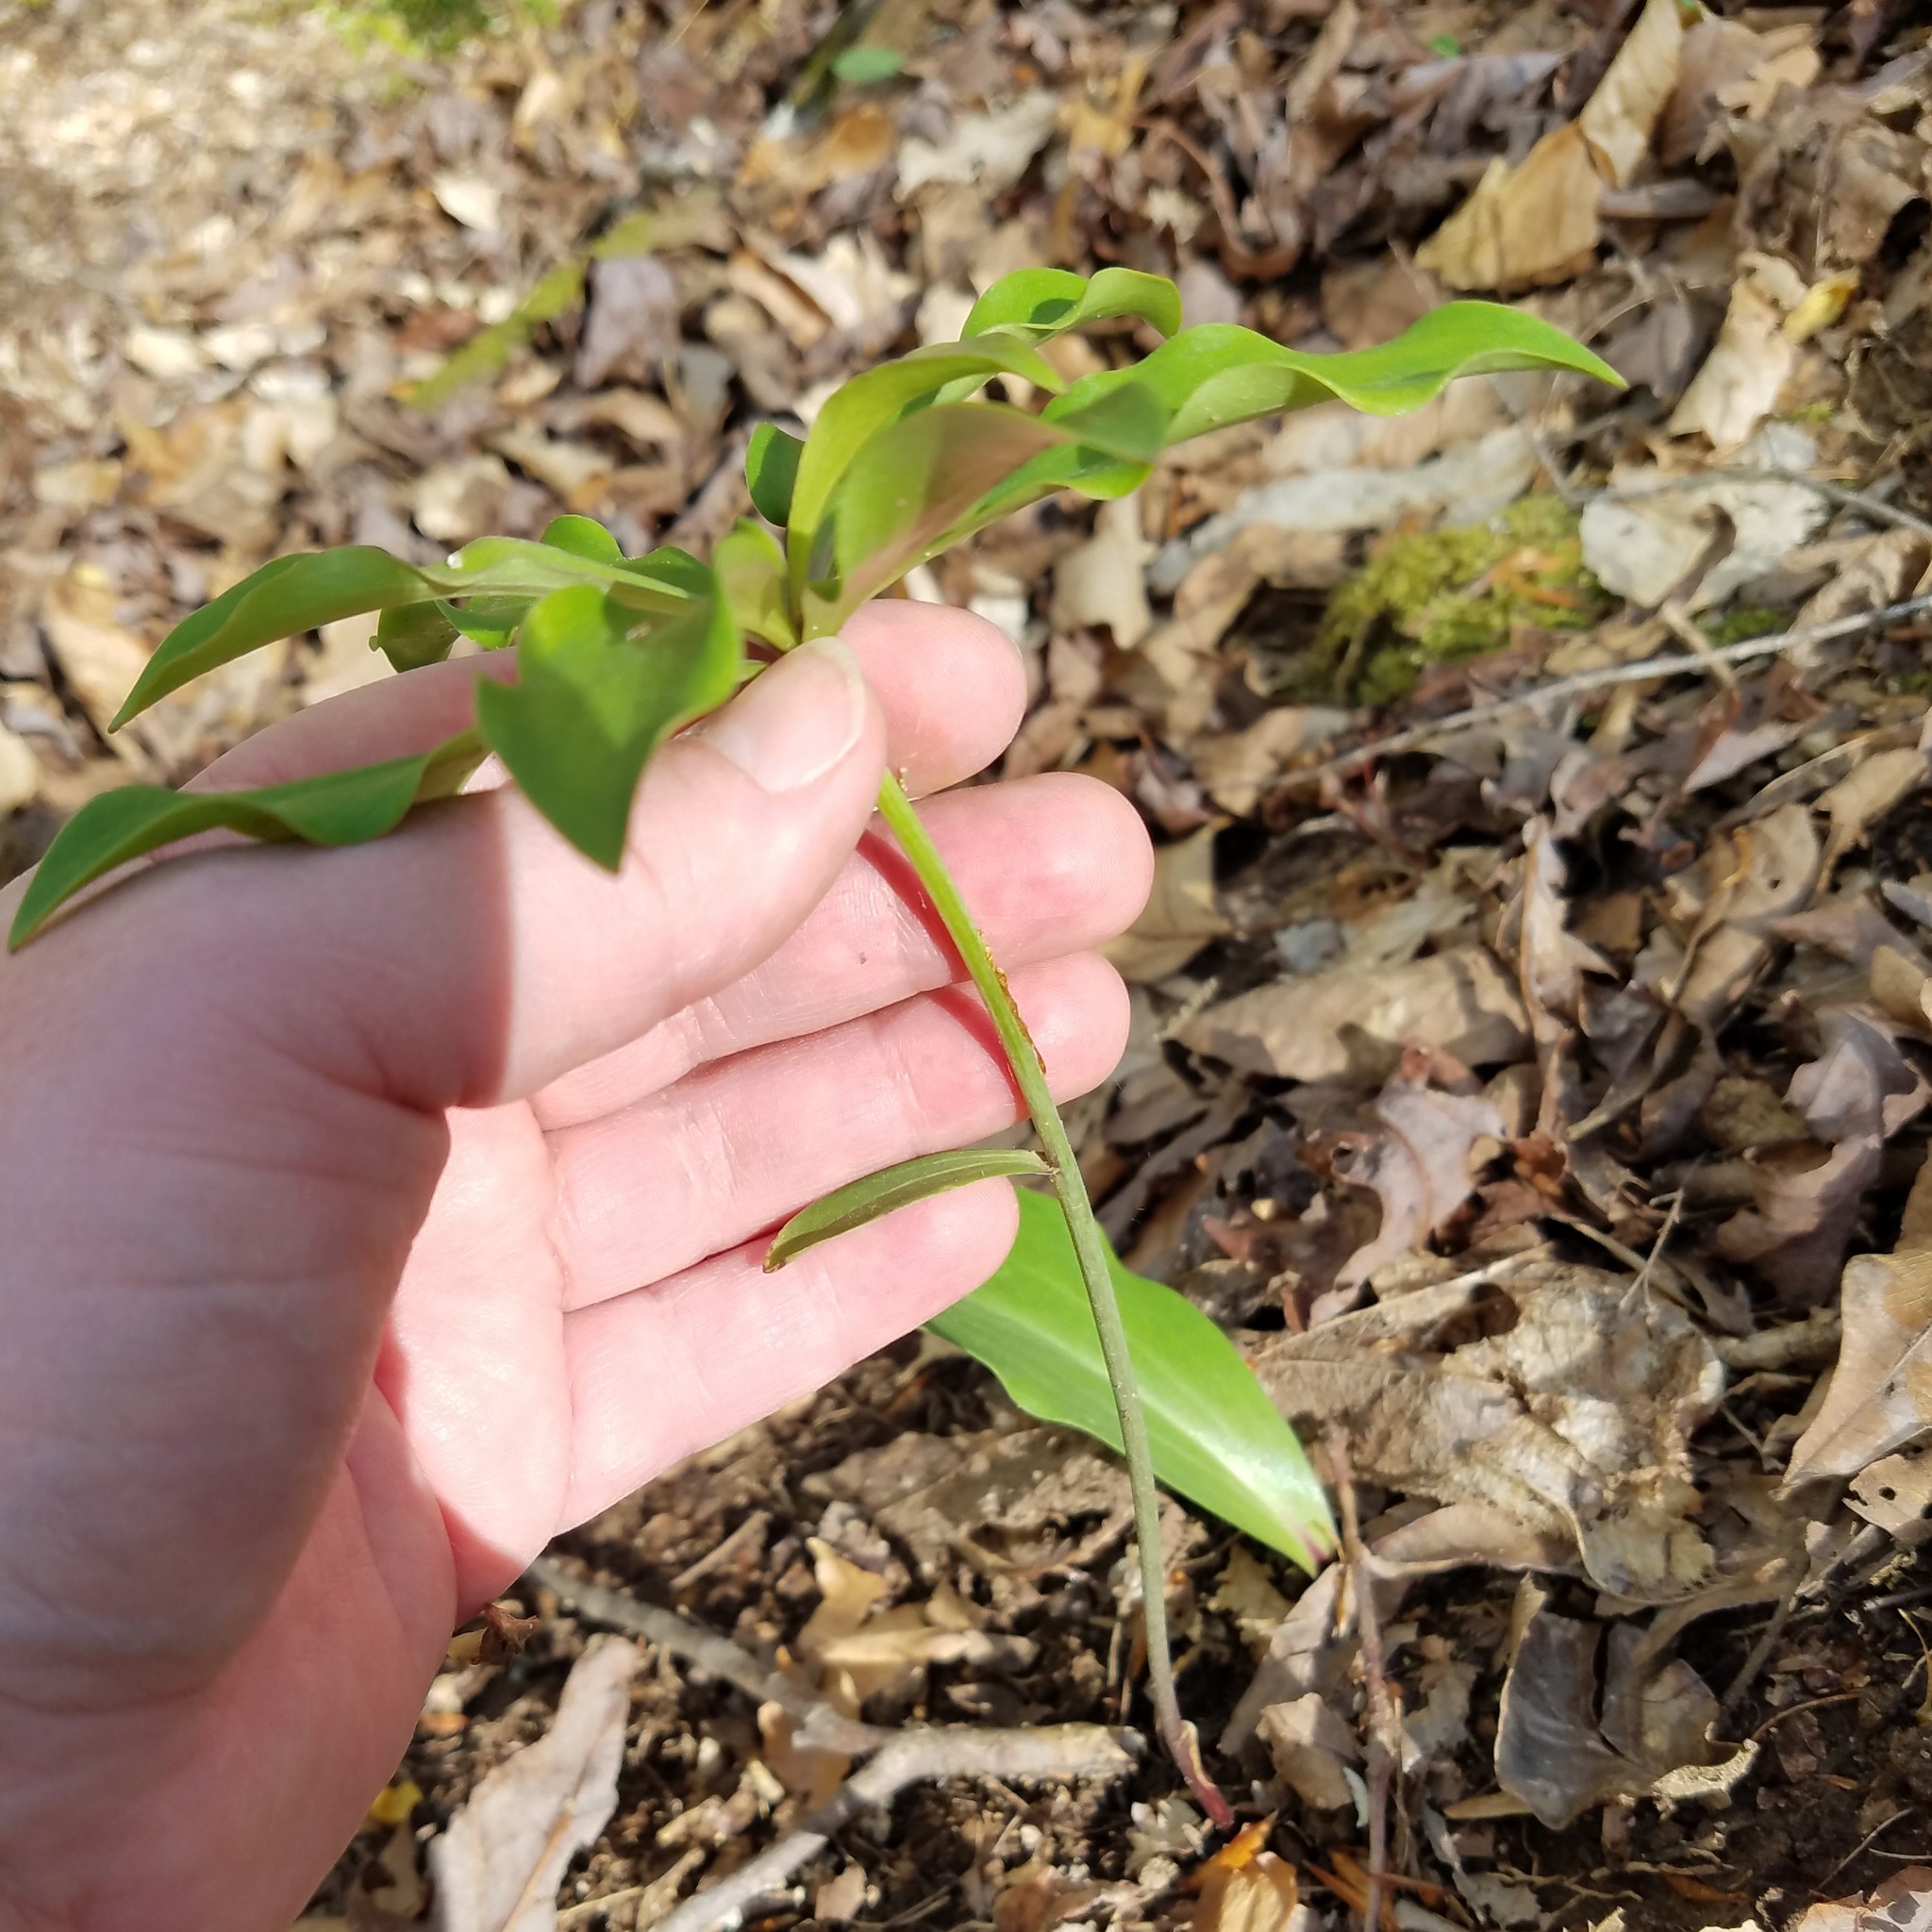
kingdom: Plantae
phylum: Tracheophyta
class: Liliopsida
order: Liliales
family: Liliaceae
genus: Lilium
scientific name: Lilium michauxii
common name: Carolina lily
